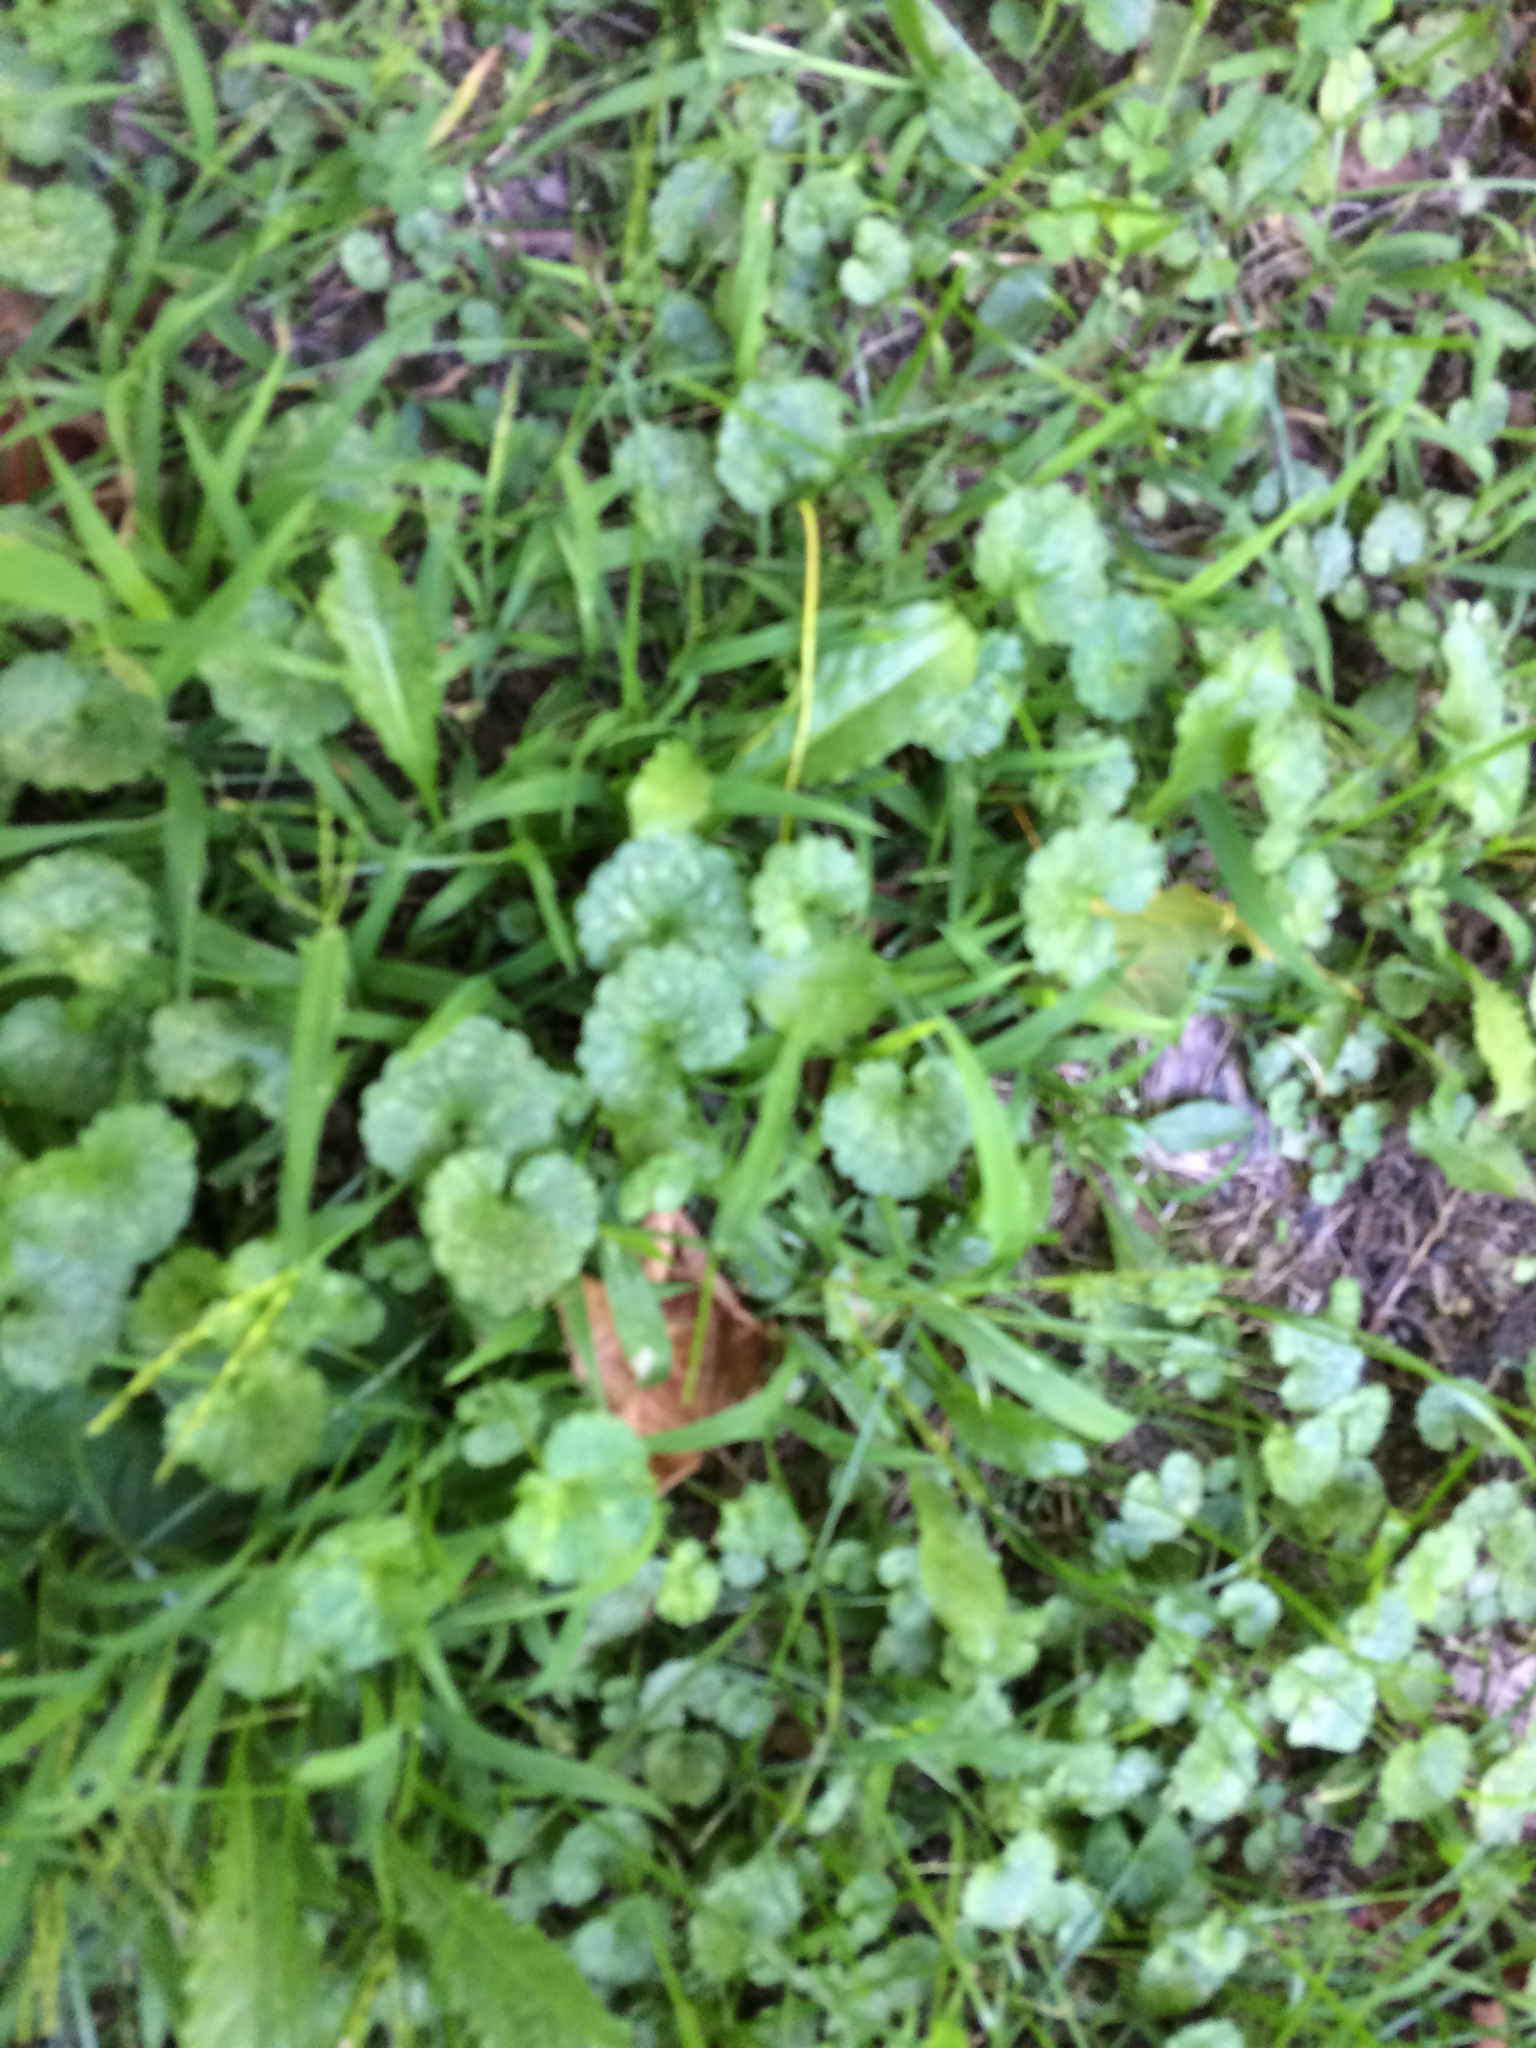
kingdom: Plantae
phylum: Tracheophyta
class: Magnoliopsida
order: Lamiales
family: Lamiaceae
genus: Glechoma
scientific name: Glechoma hederacea
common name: Ground ivy
